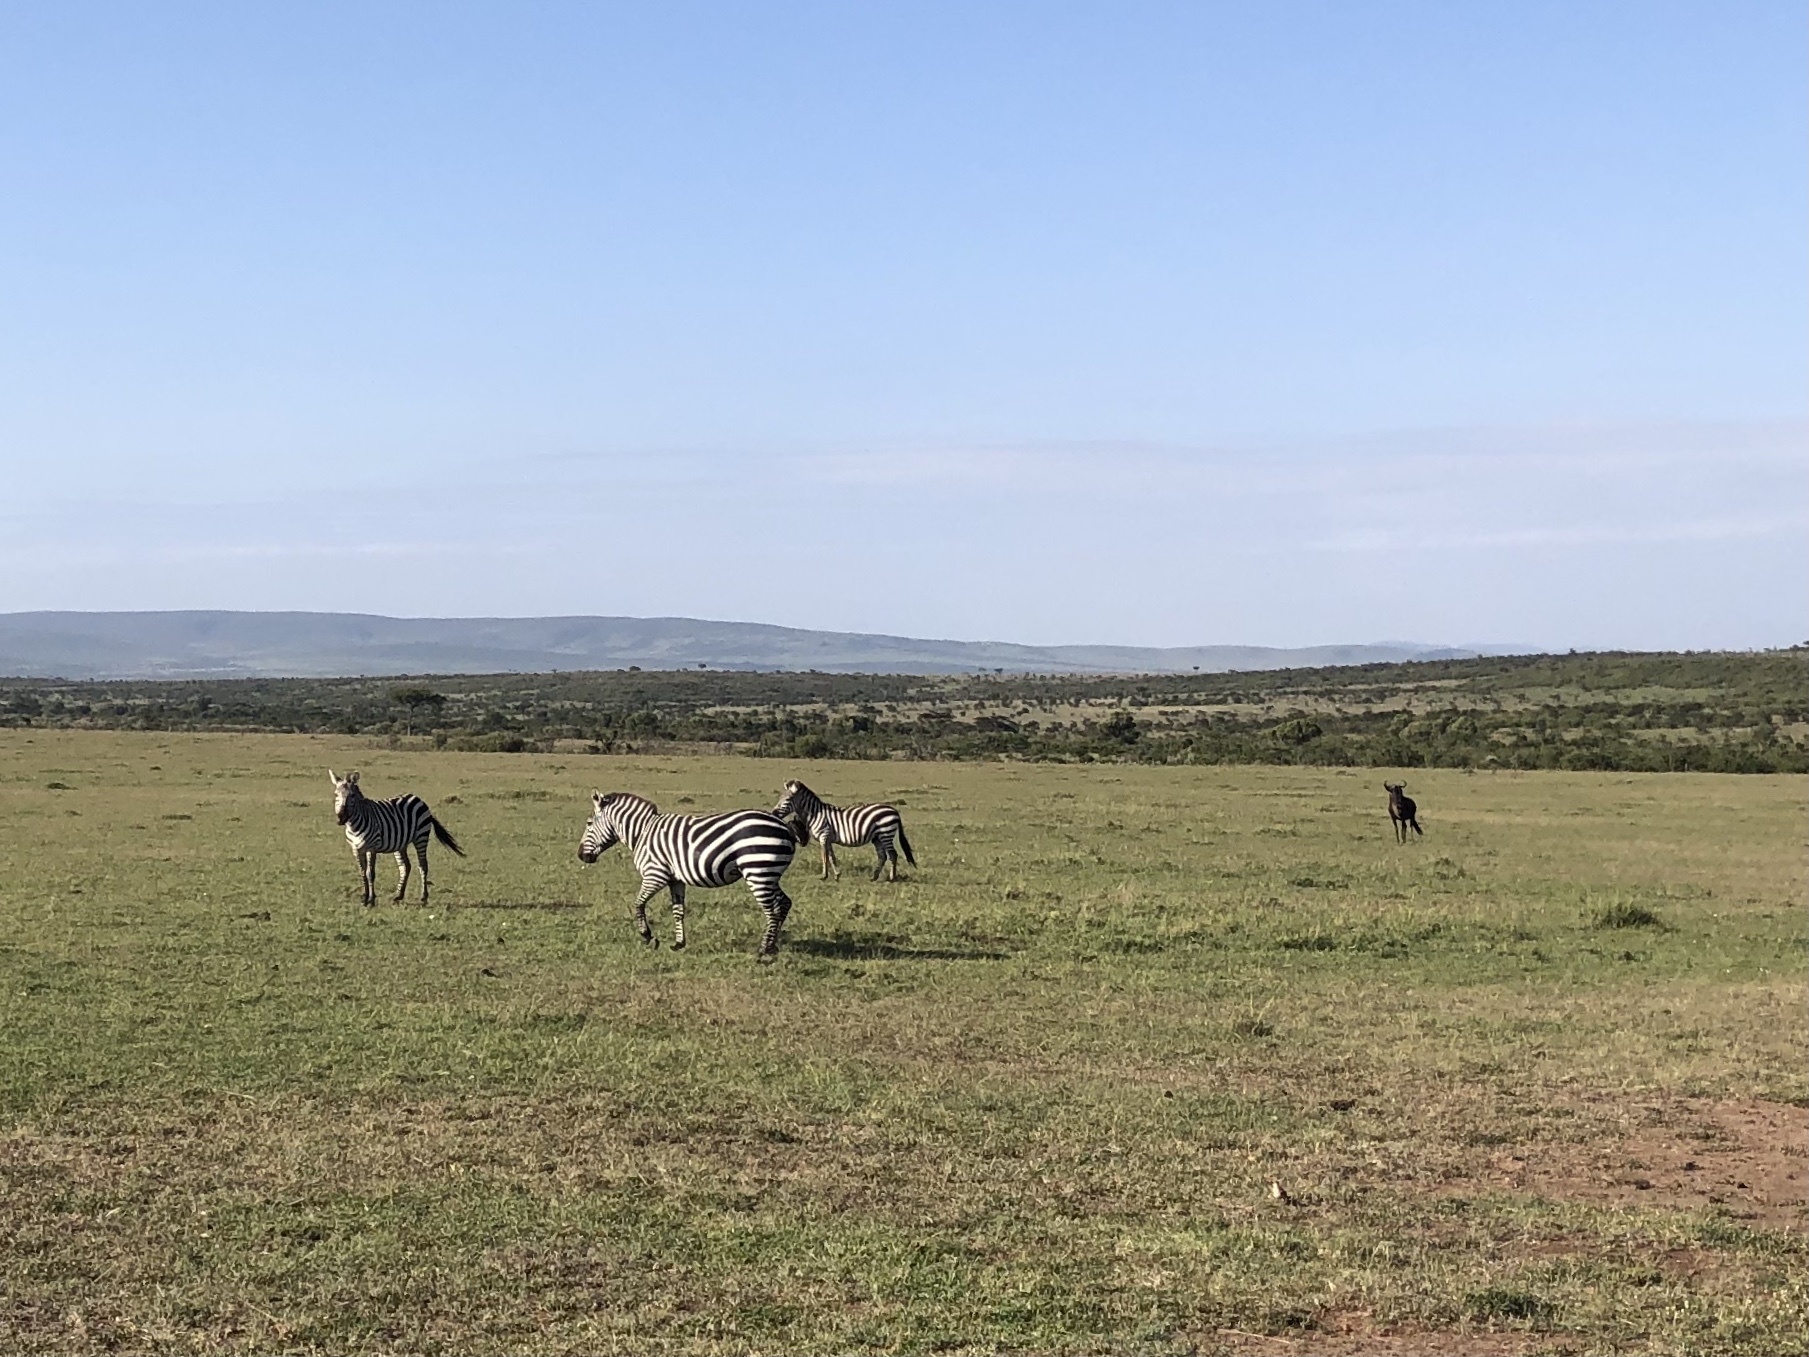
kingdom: Animalia
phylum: Chordata
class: Mammalia
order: Perissodactyla
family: Equidae
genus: Equus
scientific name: Equus quagga
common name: Plains zebra
